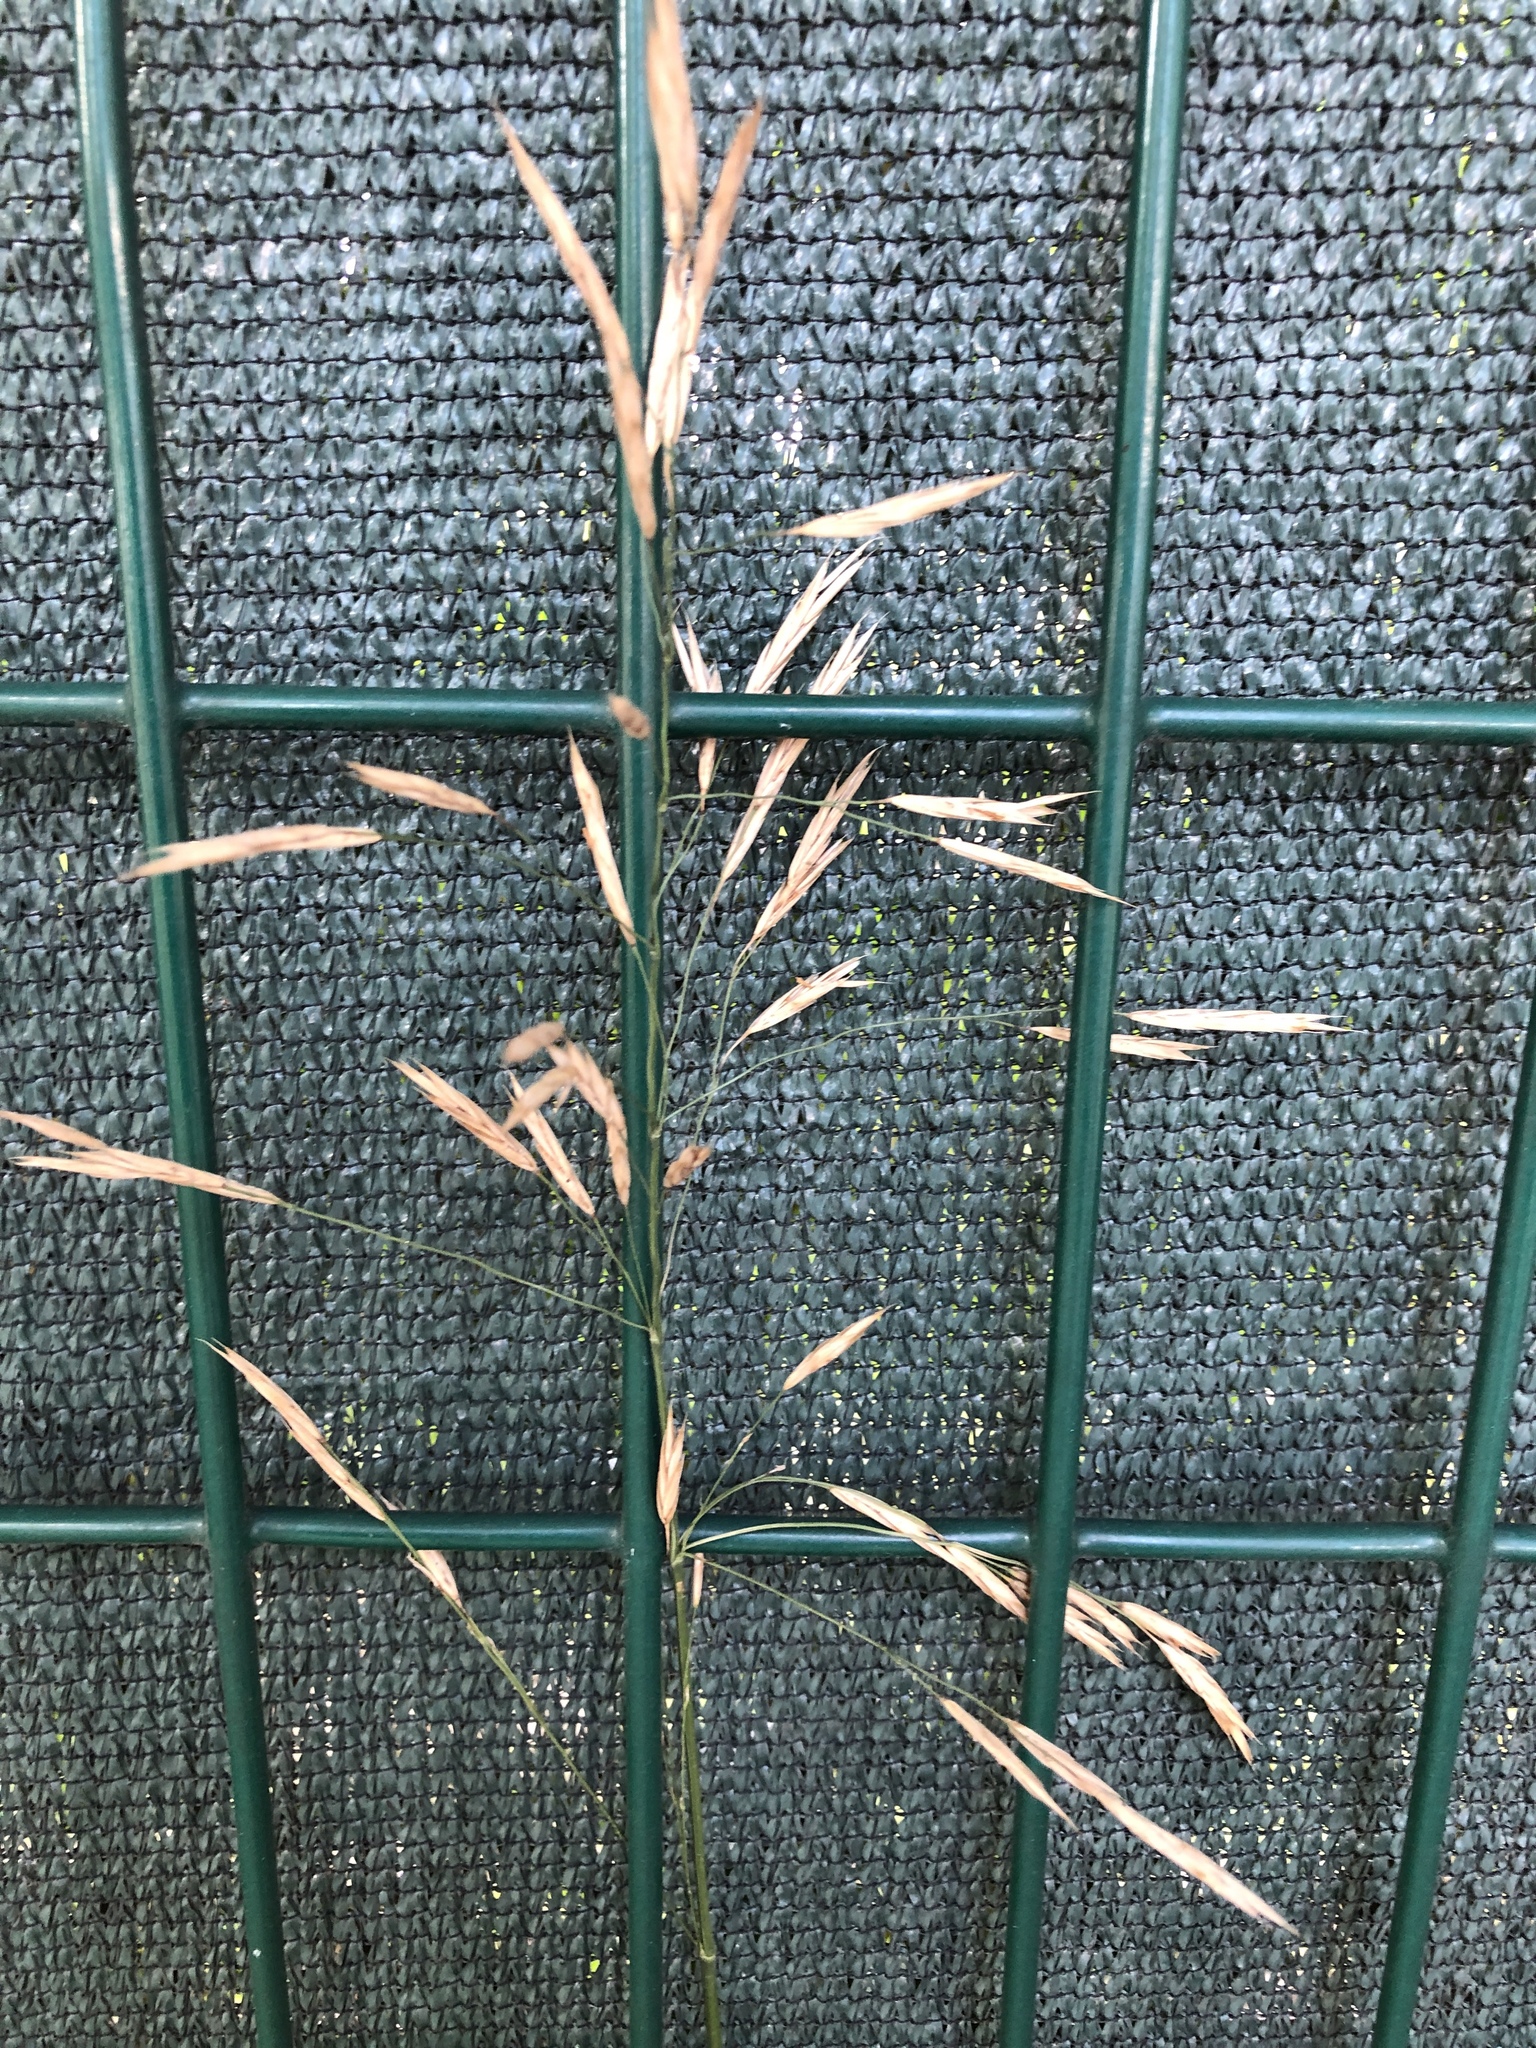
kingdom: Plantae
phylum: Tracheophyta
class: Liliopsida
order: Poales
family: Poaceae
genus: Bromus
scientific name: Bromus inermis
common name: Smooth brome
